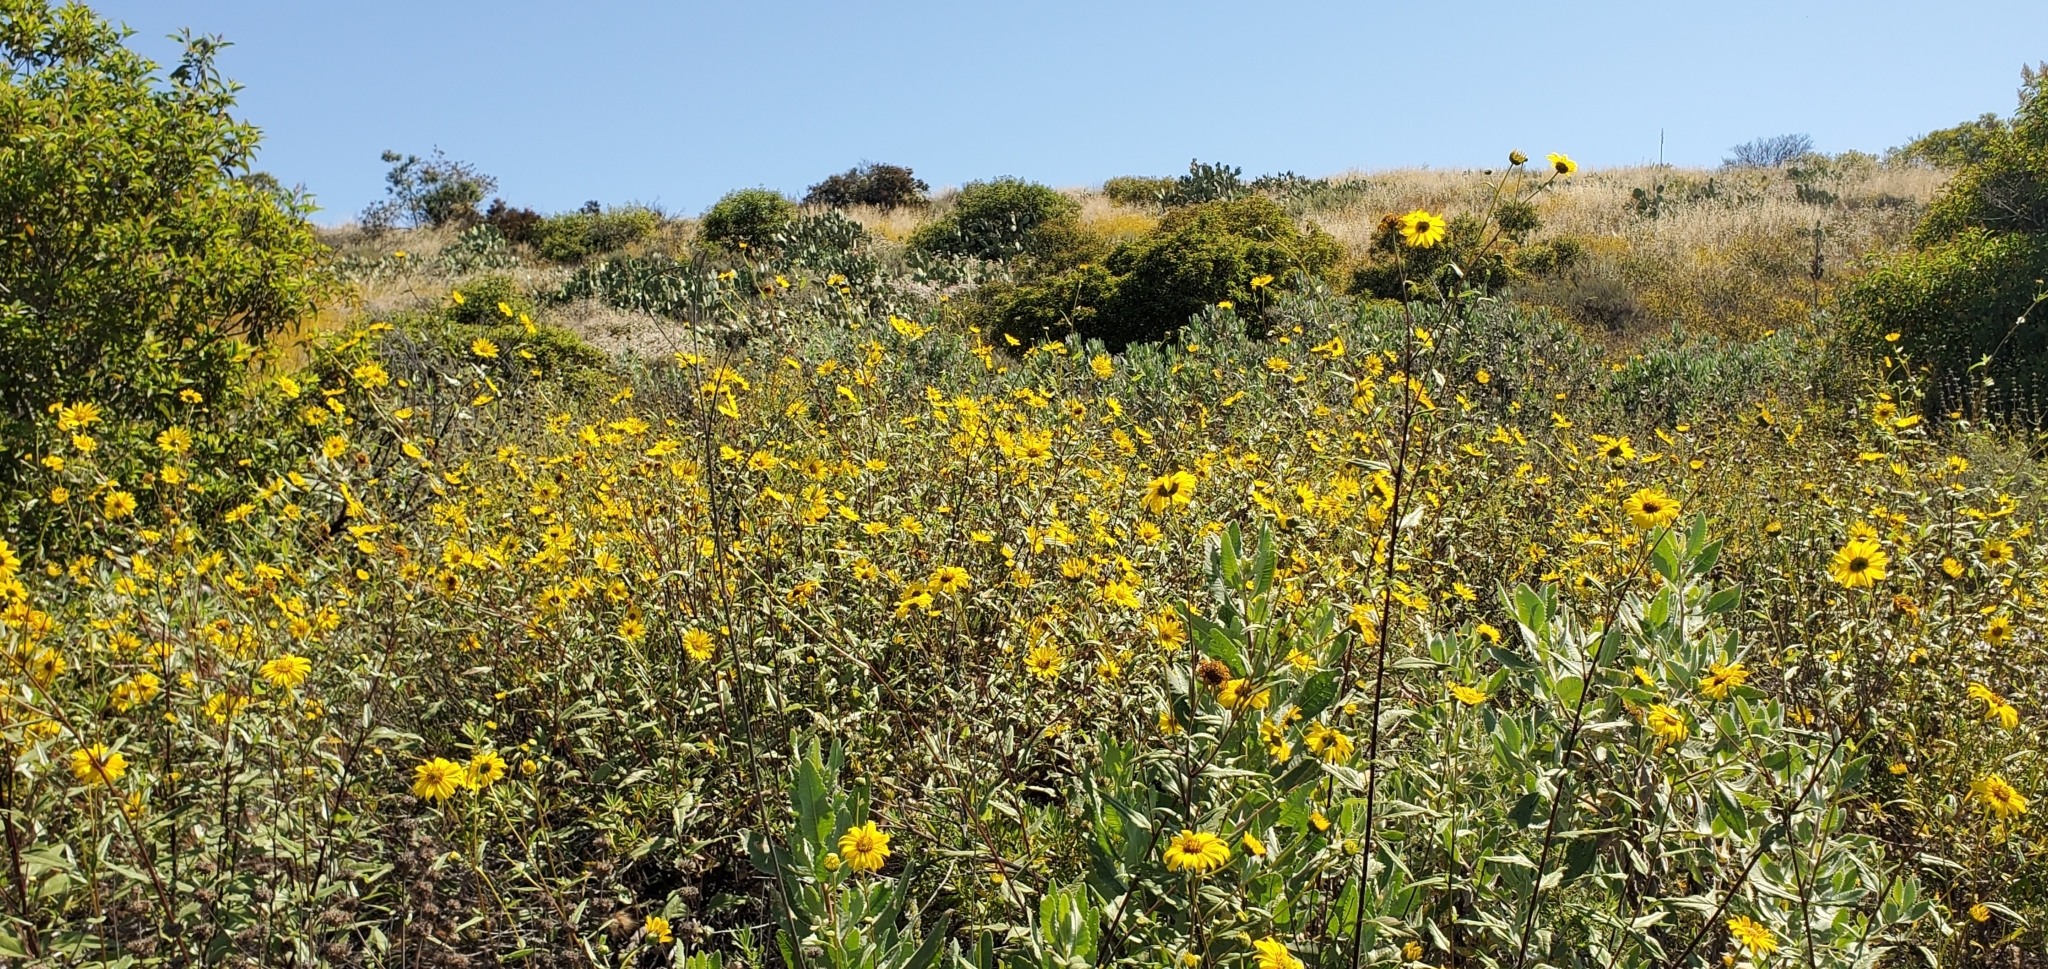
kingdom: Plantae
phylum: Tracheophyta
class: Magnoliopsida
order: Asterales
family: Asteraceae
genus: Helianthus
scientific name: Helianthus gracilentus
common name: Slender sunflower
